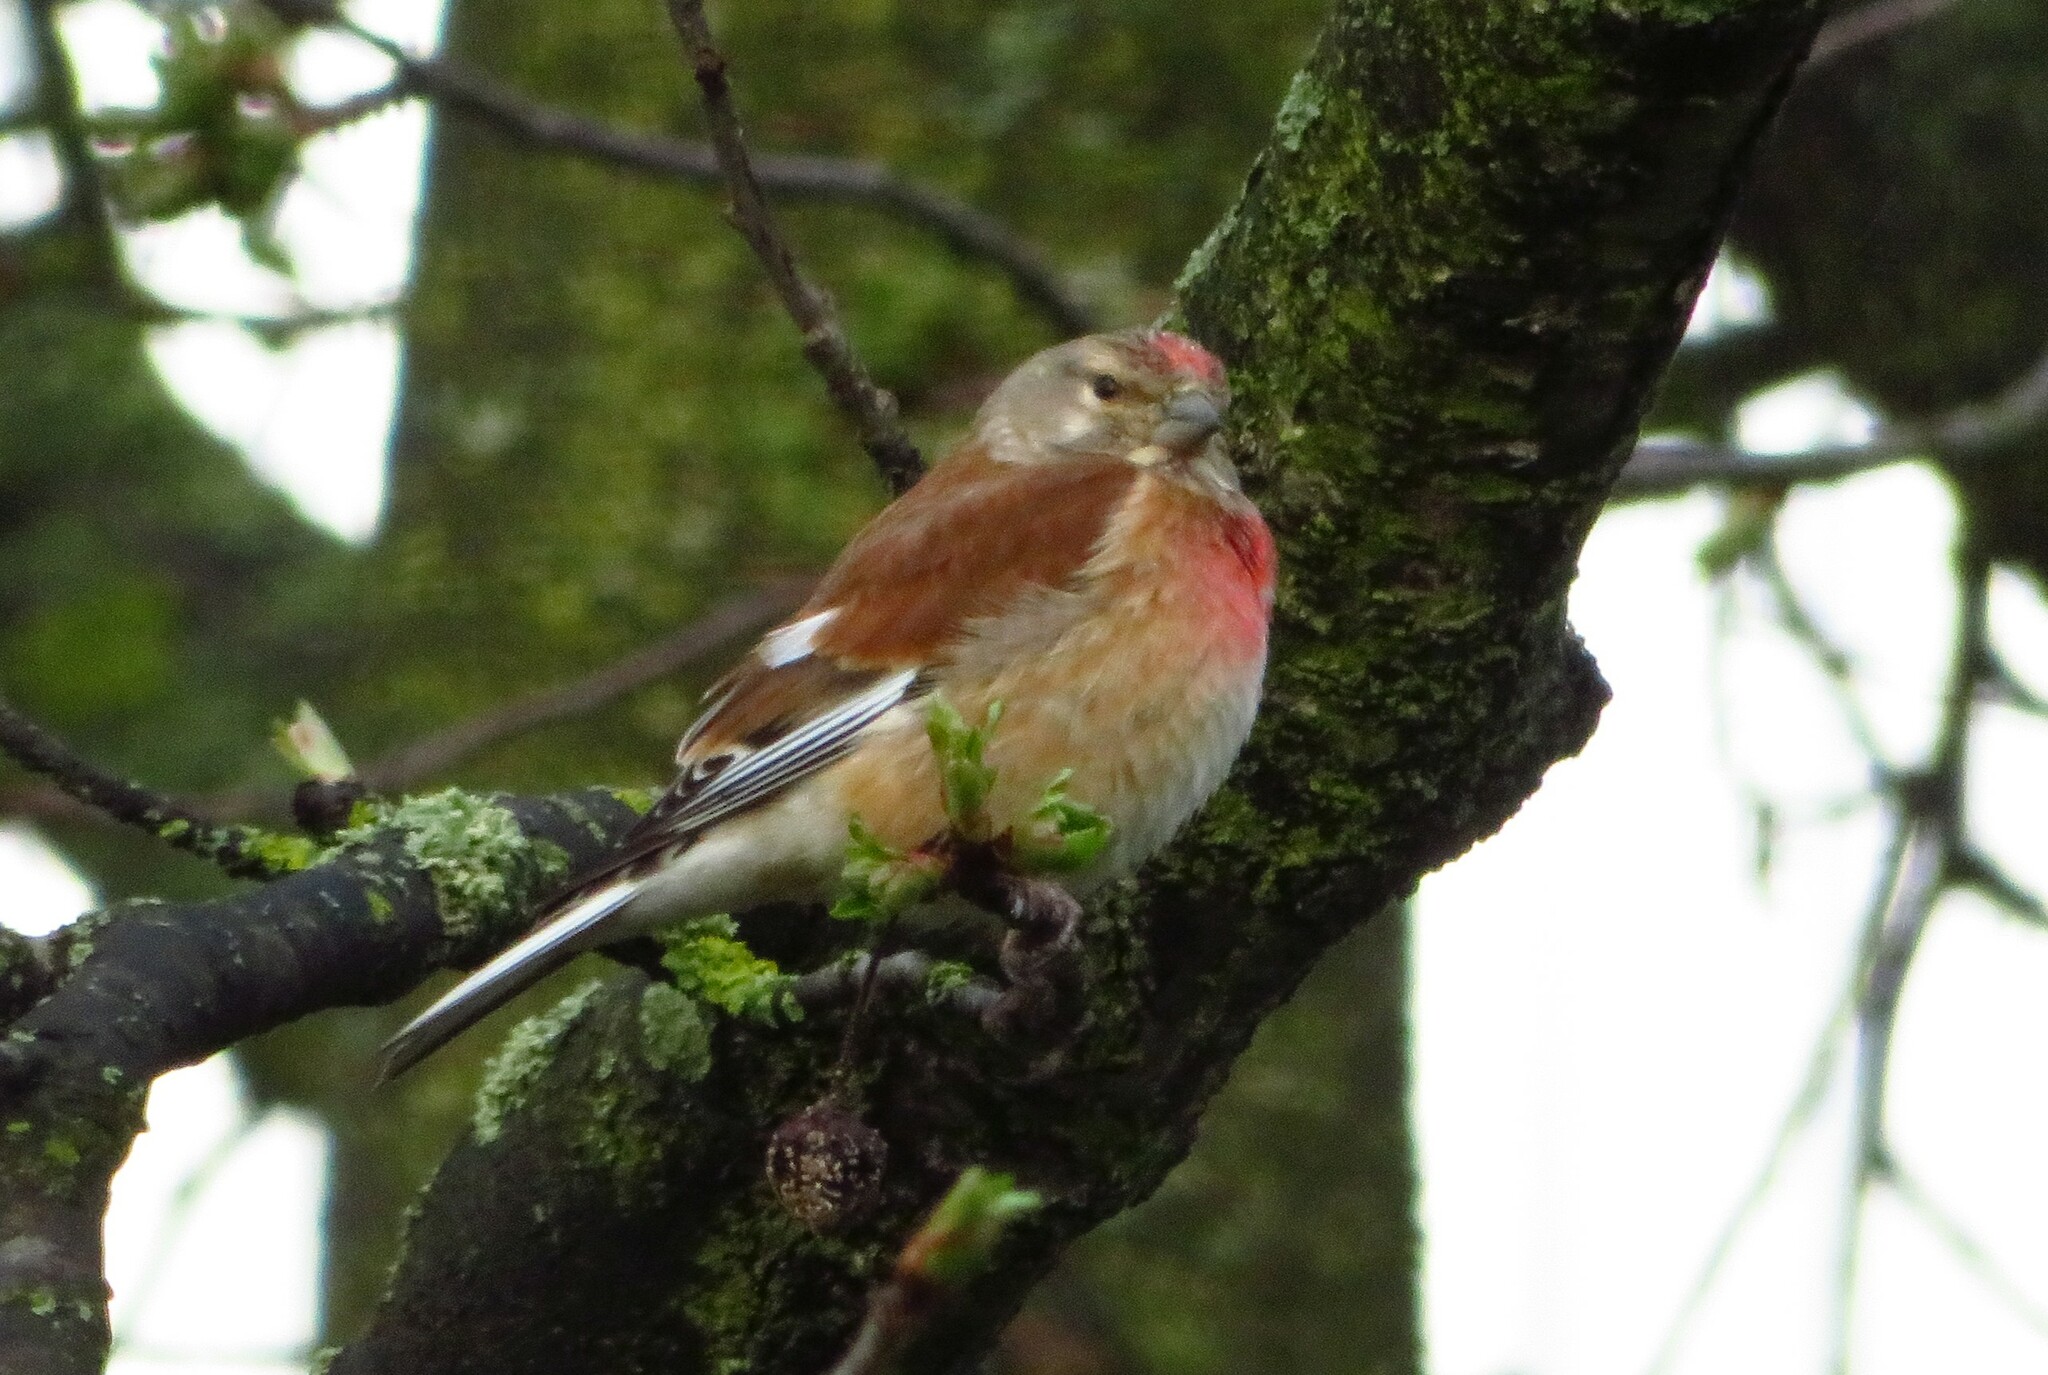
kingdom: Animalia
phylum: Chordata
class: Aves
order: Passeriformes
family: Fringillidae
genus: Linaria
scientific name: Linaria cannabina
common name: Common linnet
